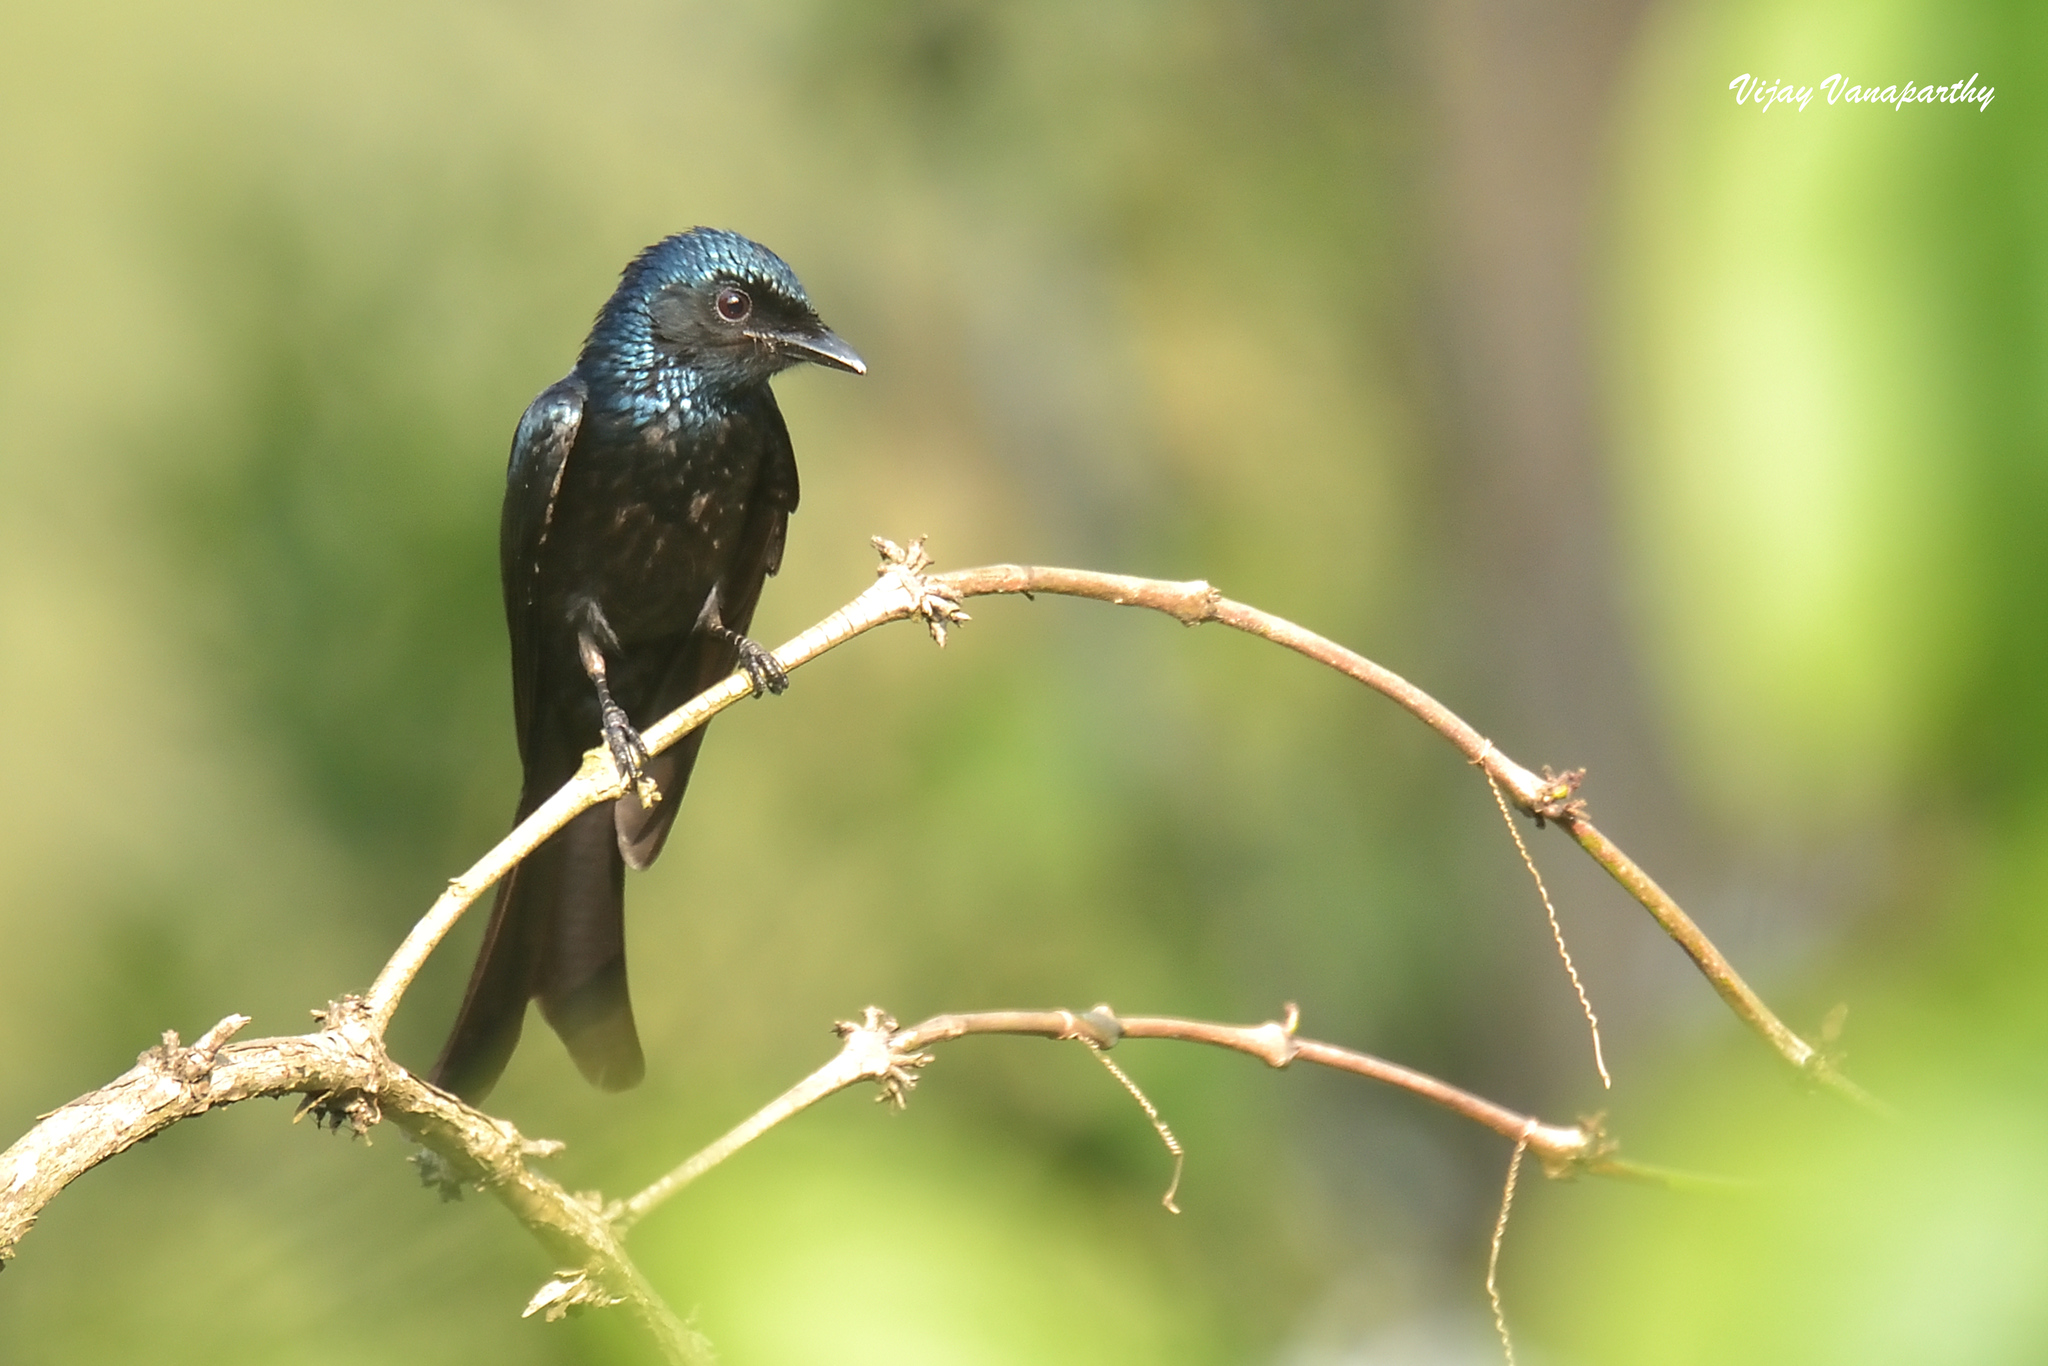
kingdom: Animalia
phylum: Chordata
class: Aves
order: Passeriformes
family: Dicruridae
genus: Dicrurus
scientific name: Dicrurus aeneus
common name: Bronzed drongo
